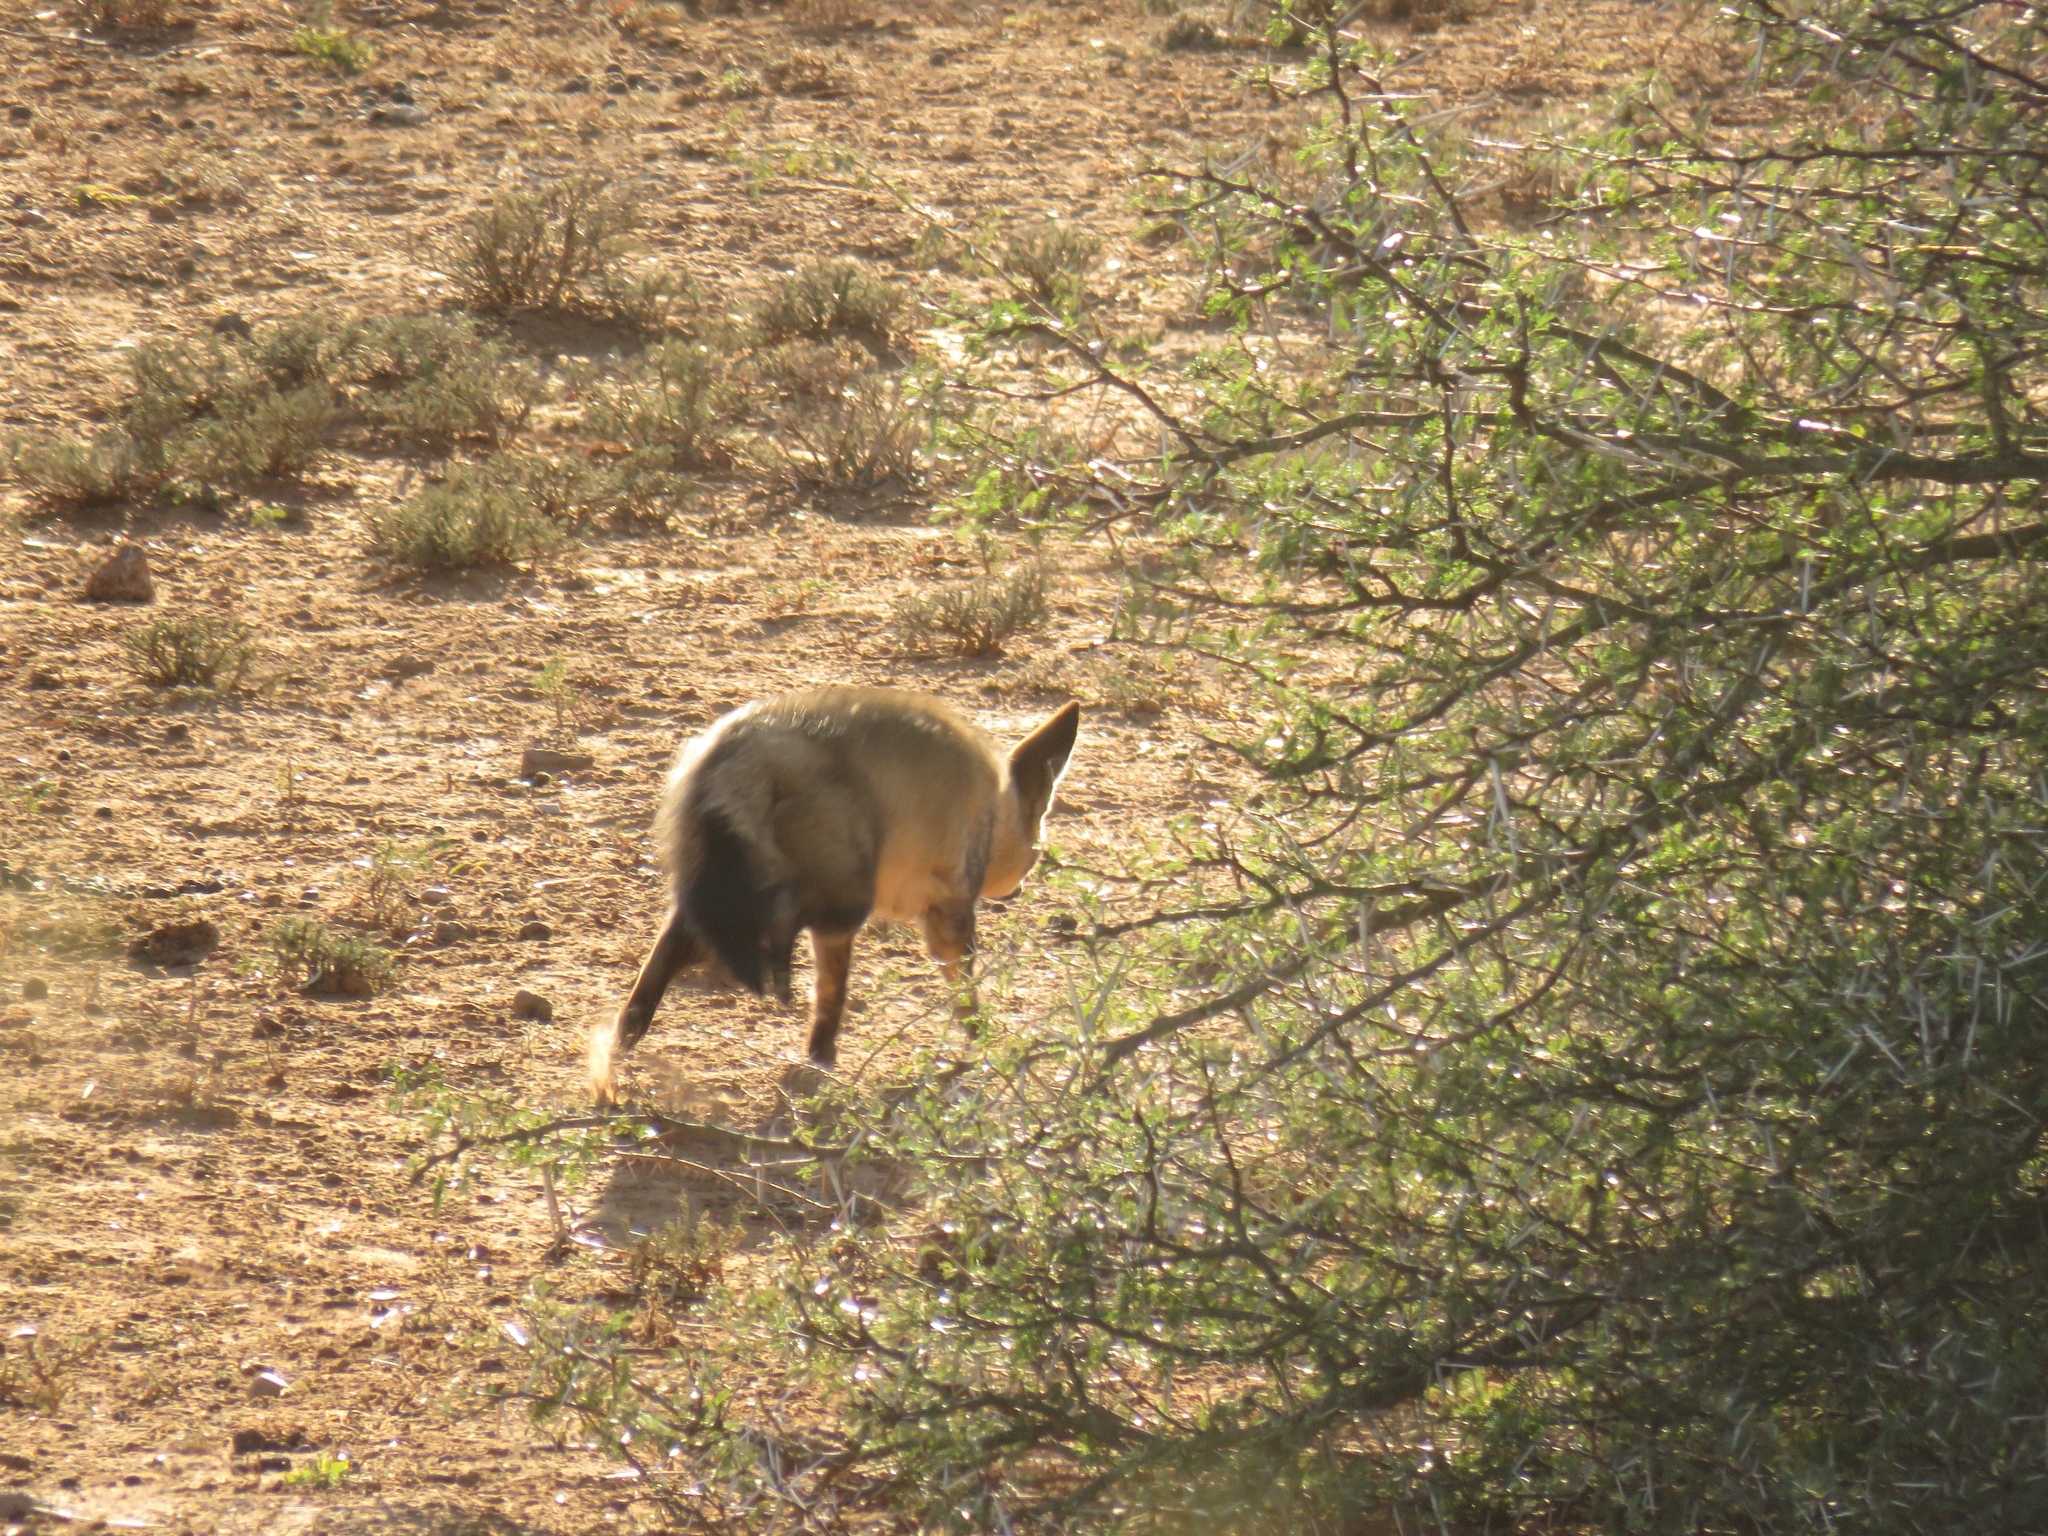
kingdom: Animalia
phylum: Chordata
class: Mammalia
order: Carnivora
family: Canidae
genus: Otocyon
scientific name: Otocyon megalotis
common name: Bat-eared fox
